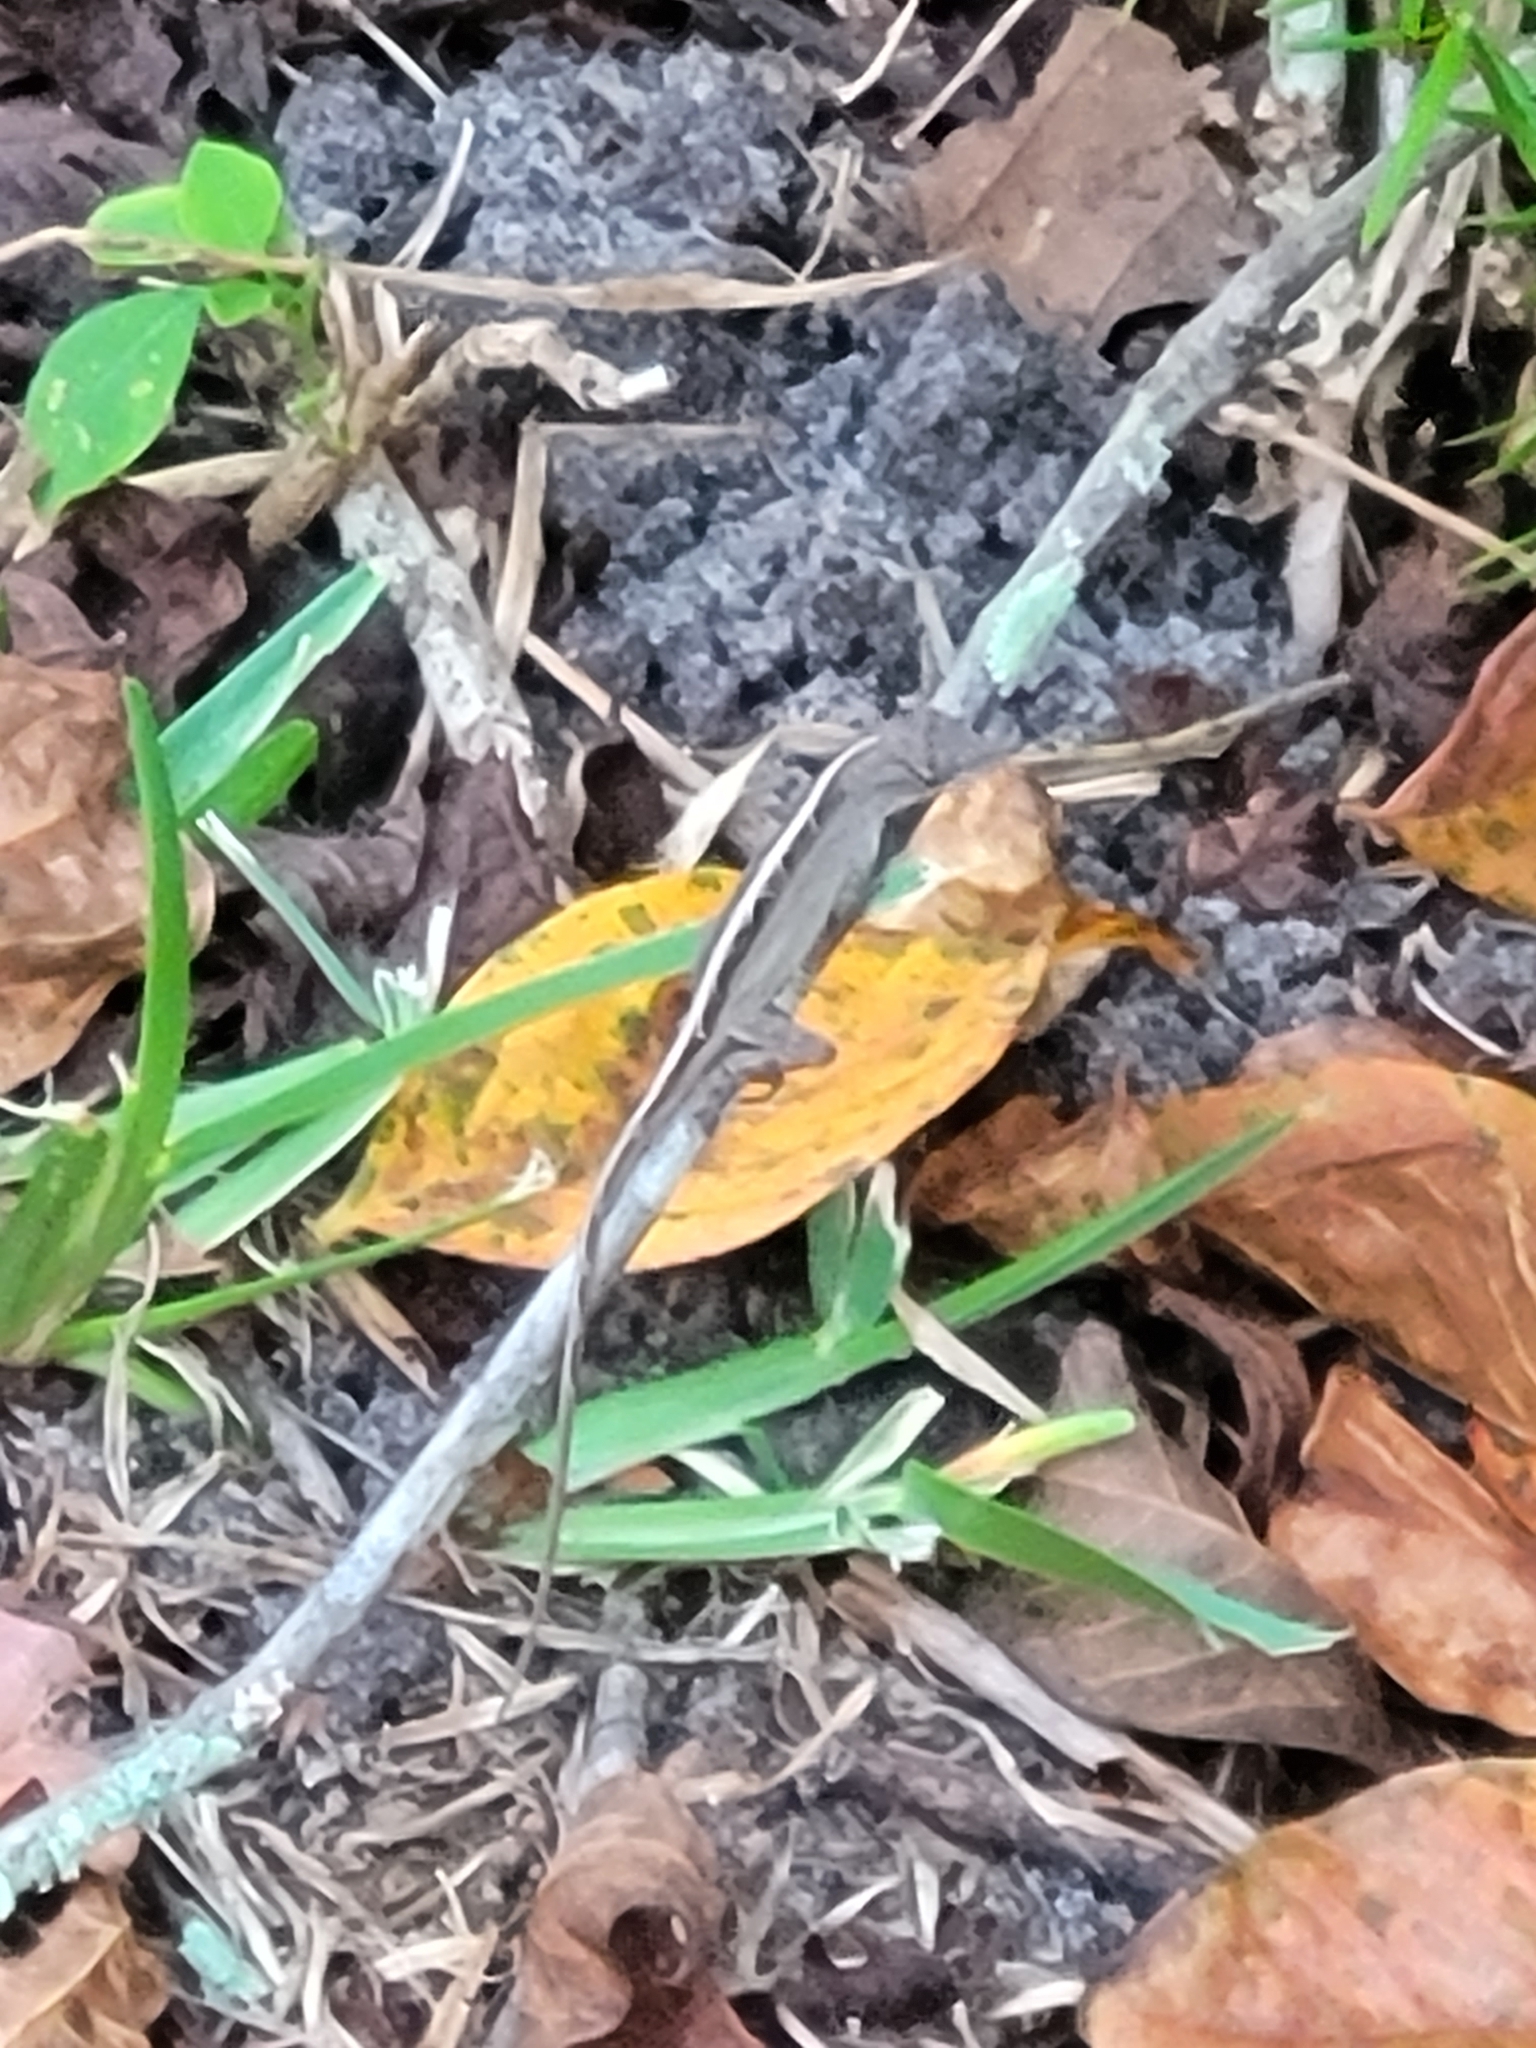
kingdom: Animalia
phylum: Chordata
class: Squamata
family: Dactyloidae
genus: Anolis
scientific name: Anolis sagrei
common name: Brown anole
